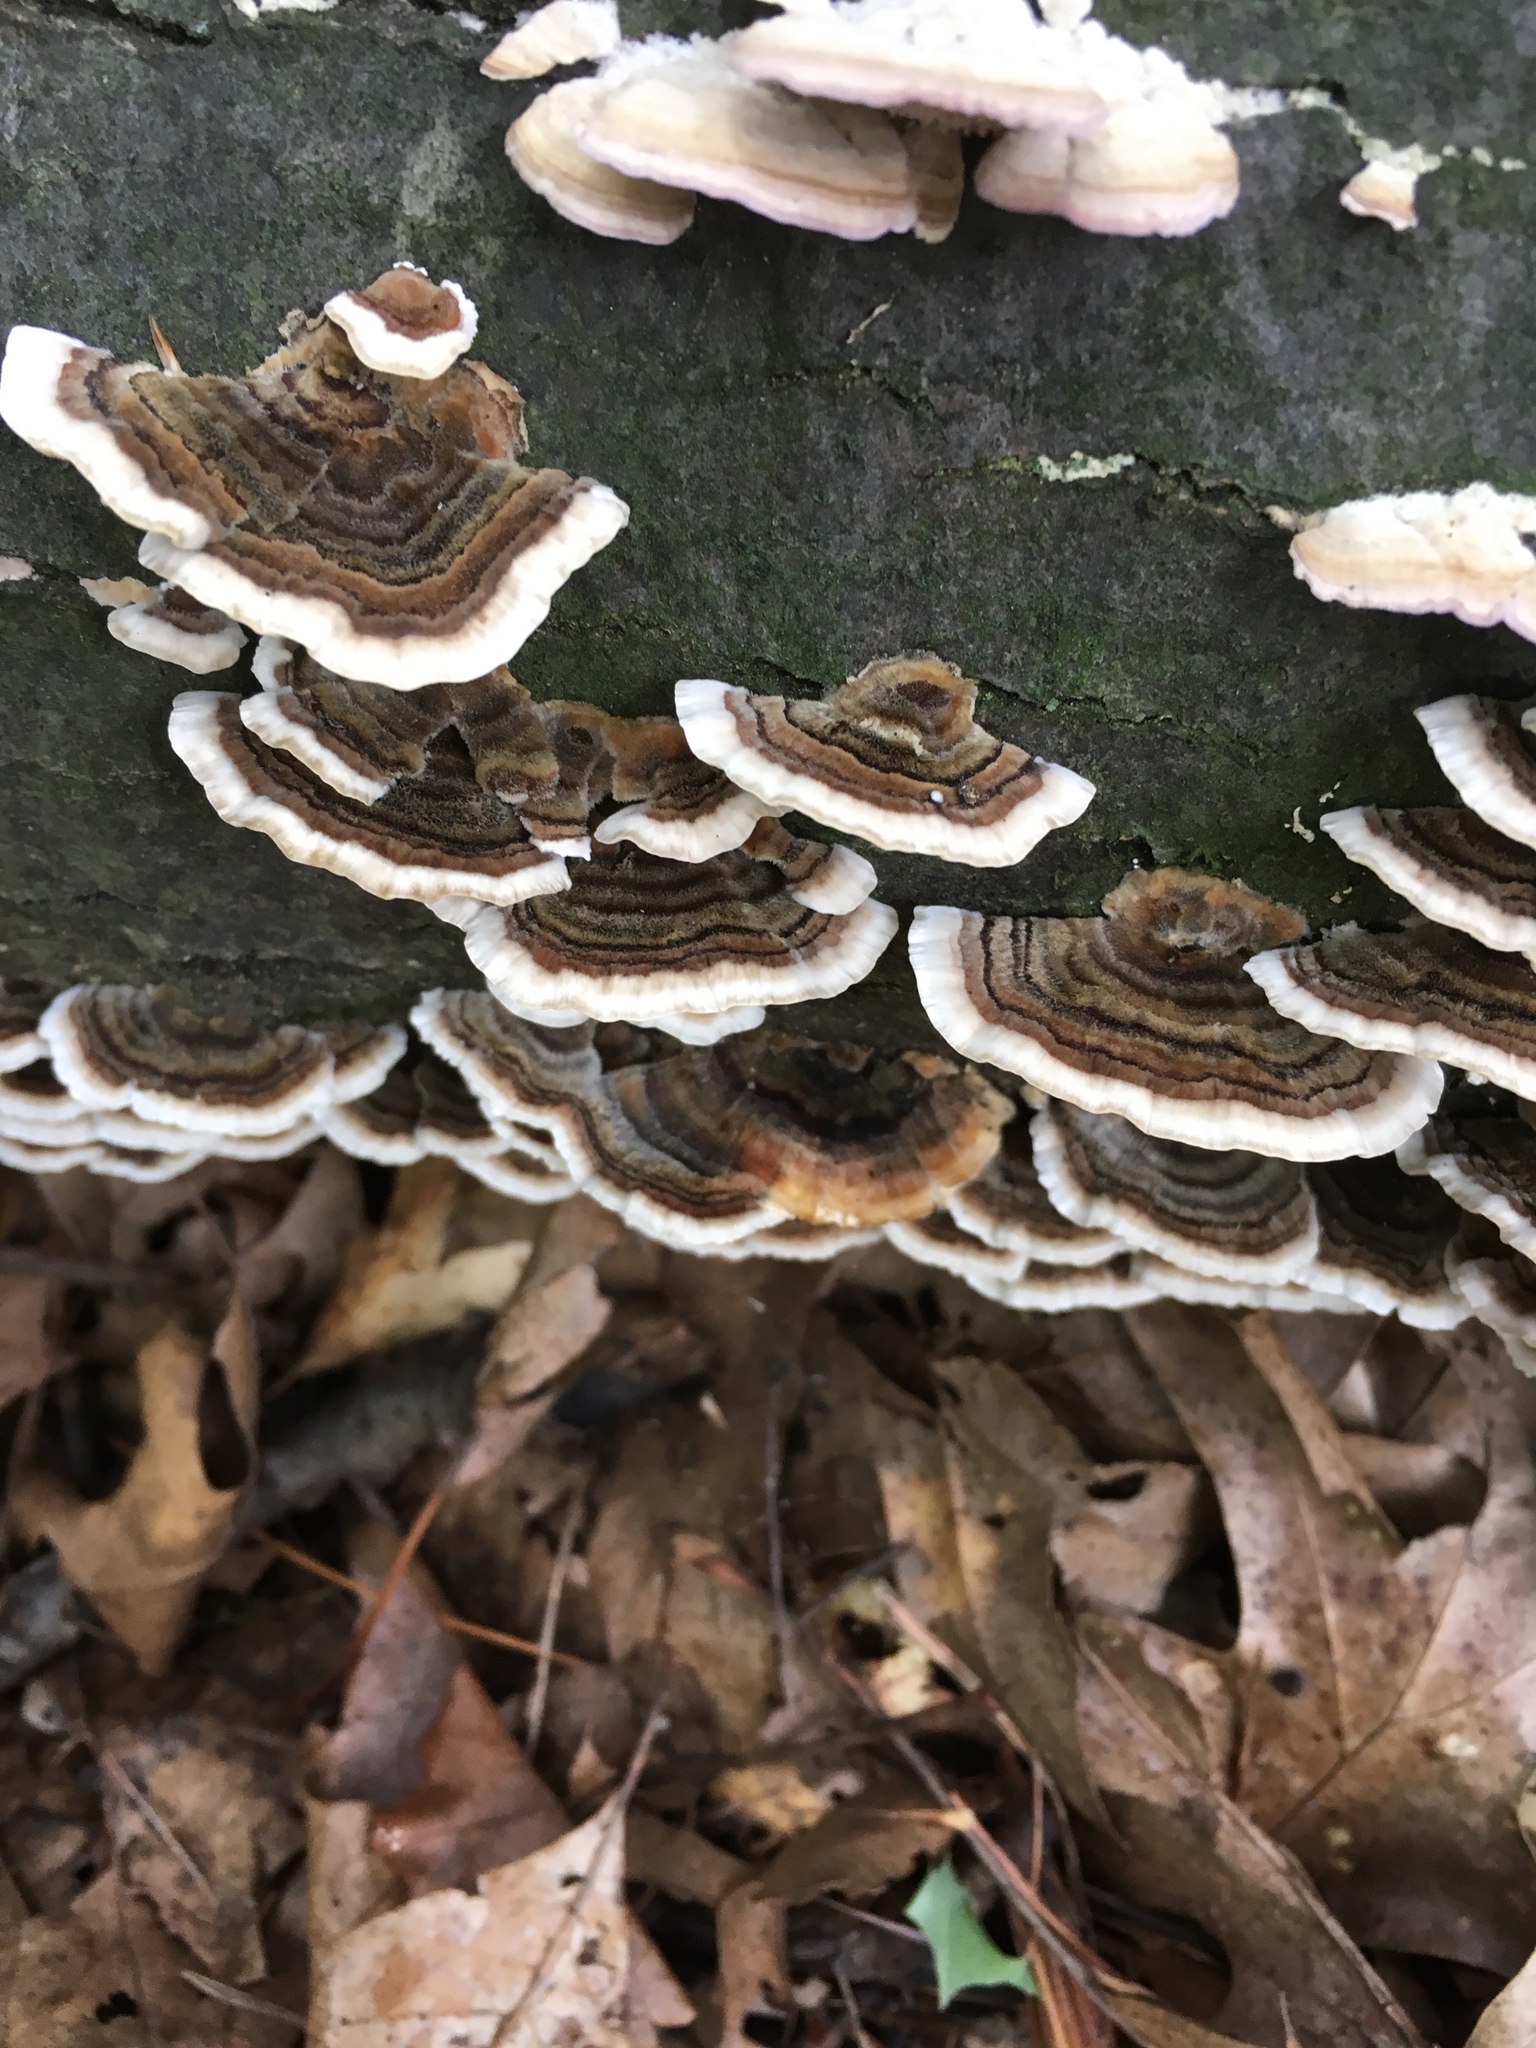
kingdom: Fungi
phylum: Basidiomycota
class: Agaricomycetes
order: Polyporales
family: Polyporaceae
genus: Trametes
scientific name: Trametes versicolor
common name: Turkeytail
